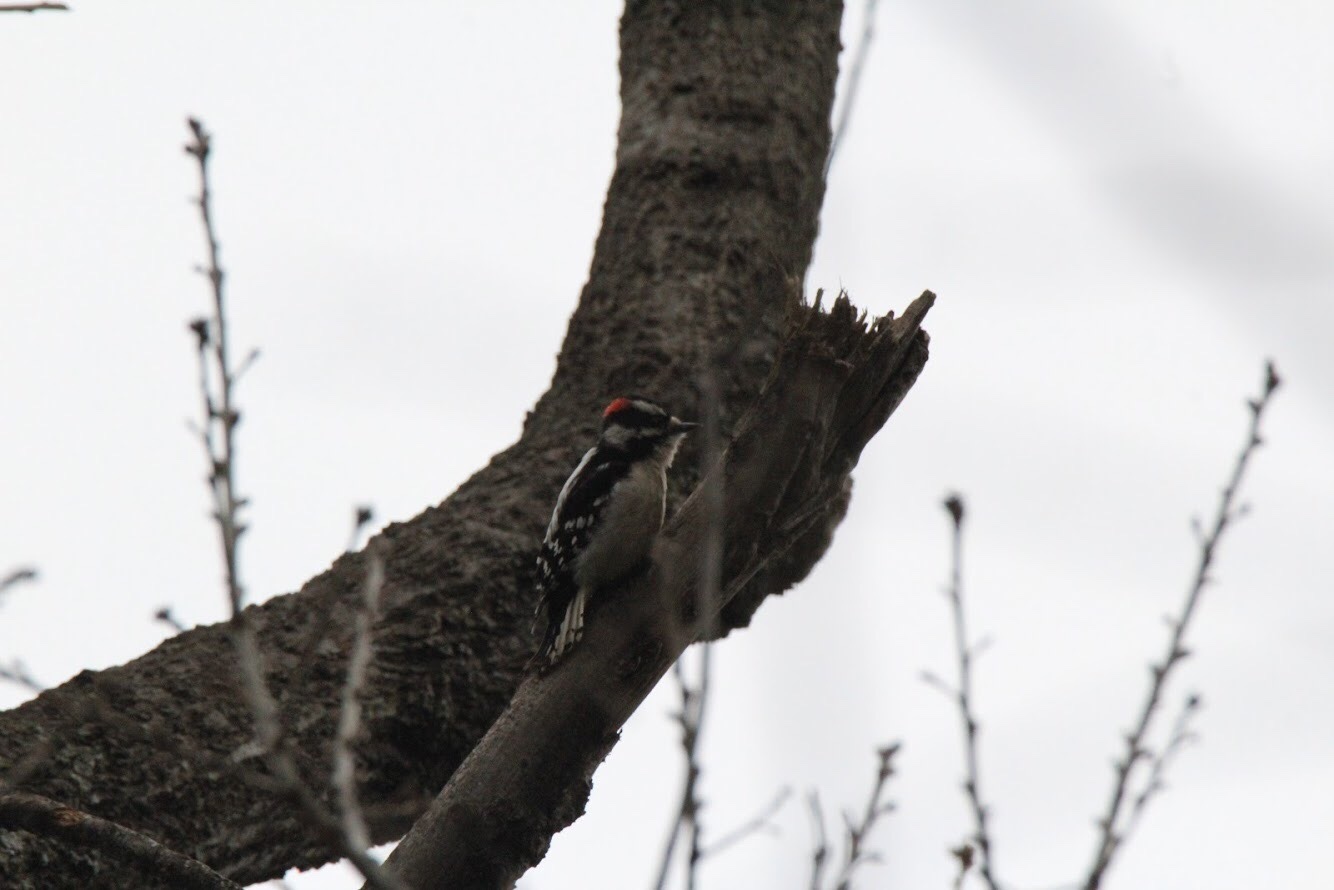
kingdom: Animalia
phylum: Chordata
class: Aves
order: Piciformes
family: Picidae
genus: Dryobates
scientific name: Dryobates pubescens
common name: Downy woodpecker
